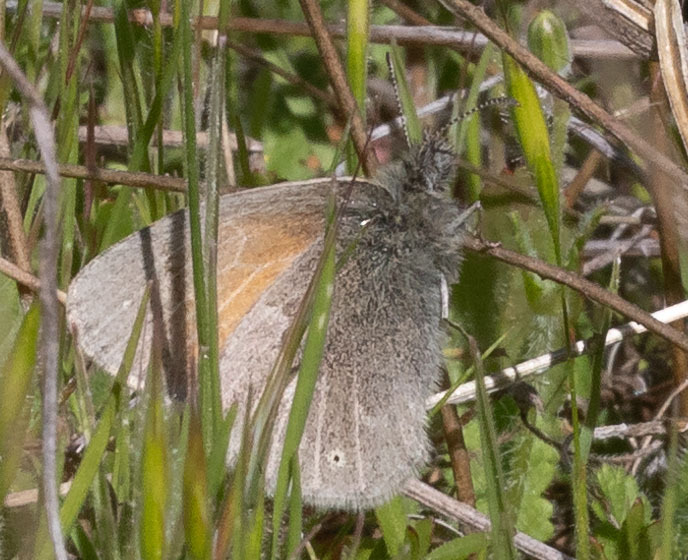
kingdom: Animalia
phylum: Arthropoda
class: Insecta
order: Lepidoptera
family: Nymphalidae
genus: Coenonympha
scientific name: Coenonympha california
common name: Common ringlet
